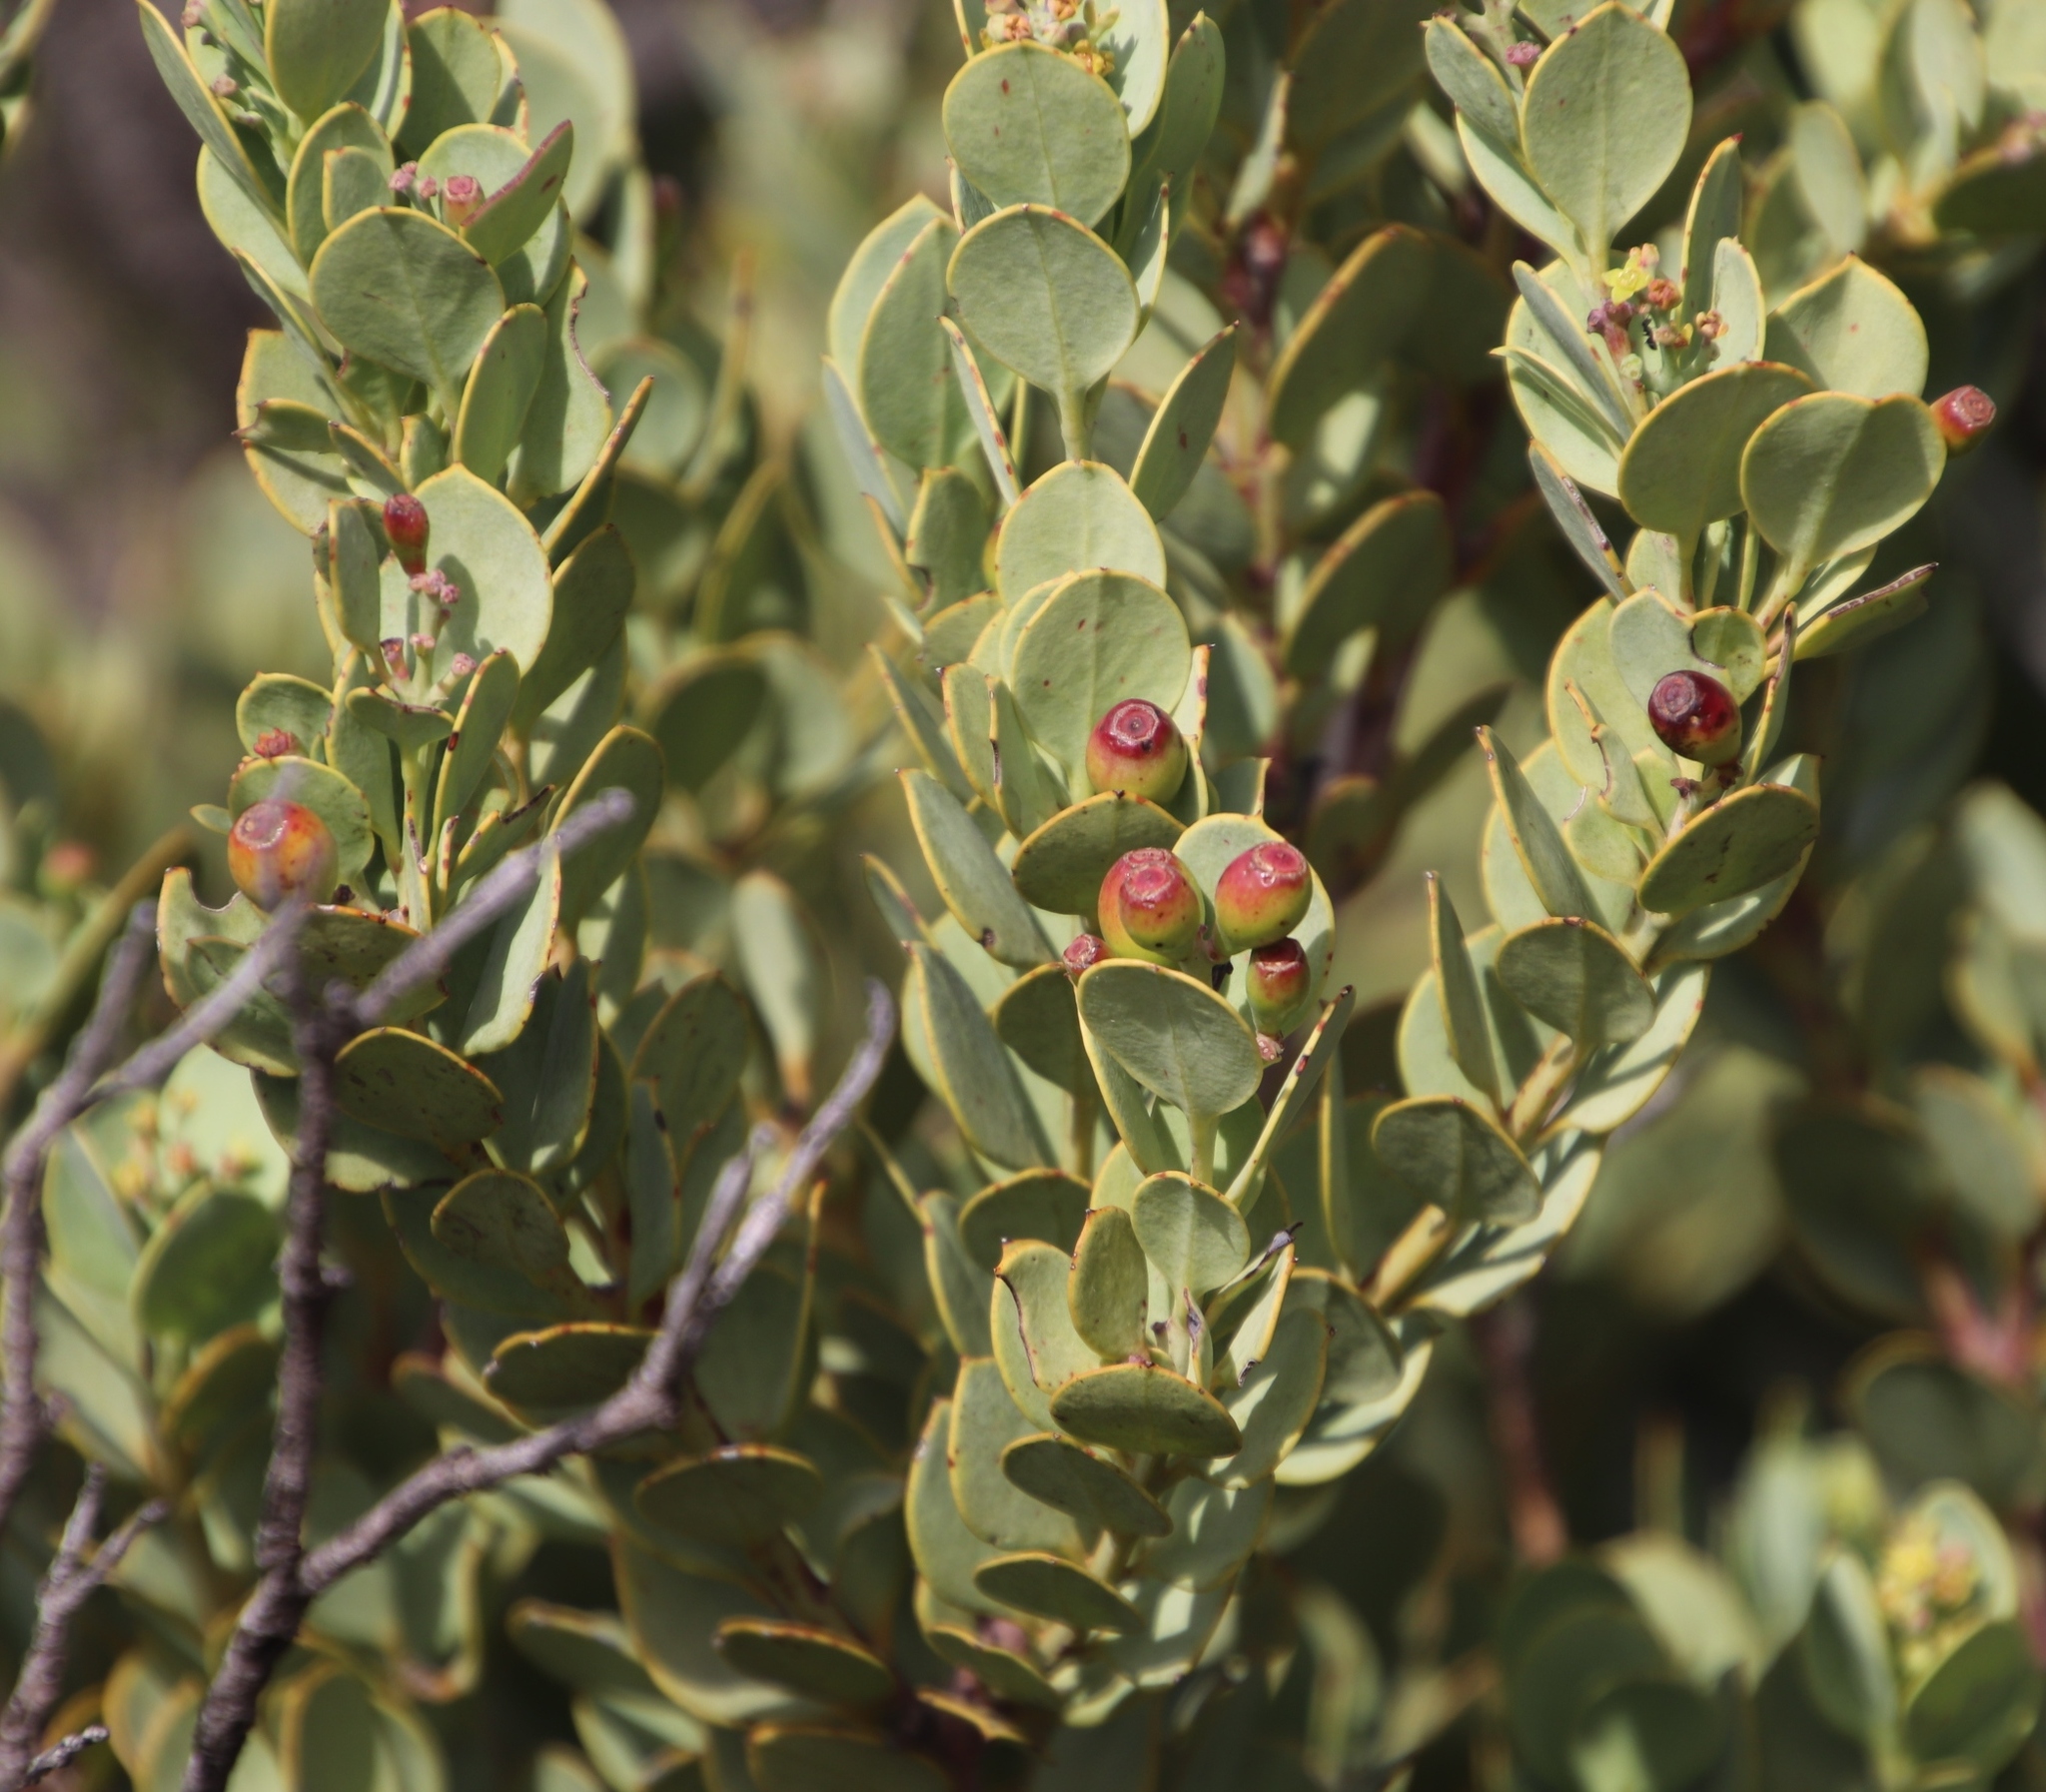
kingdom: Plantae
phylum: Tracheophyta
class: Magnoliopsida
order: Santalales
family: Santalaceae
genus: Osyris
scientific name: Osyris compressa
